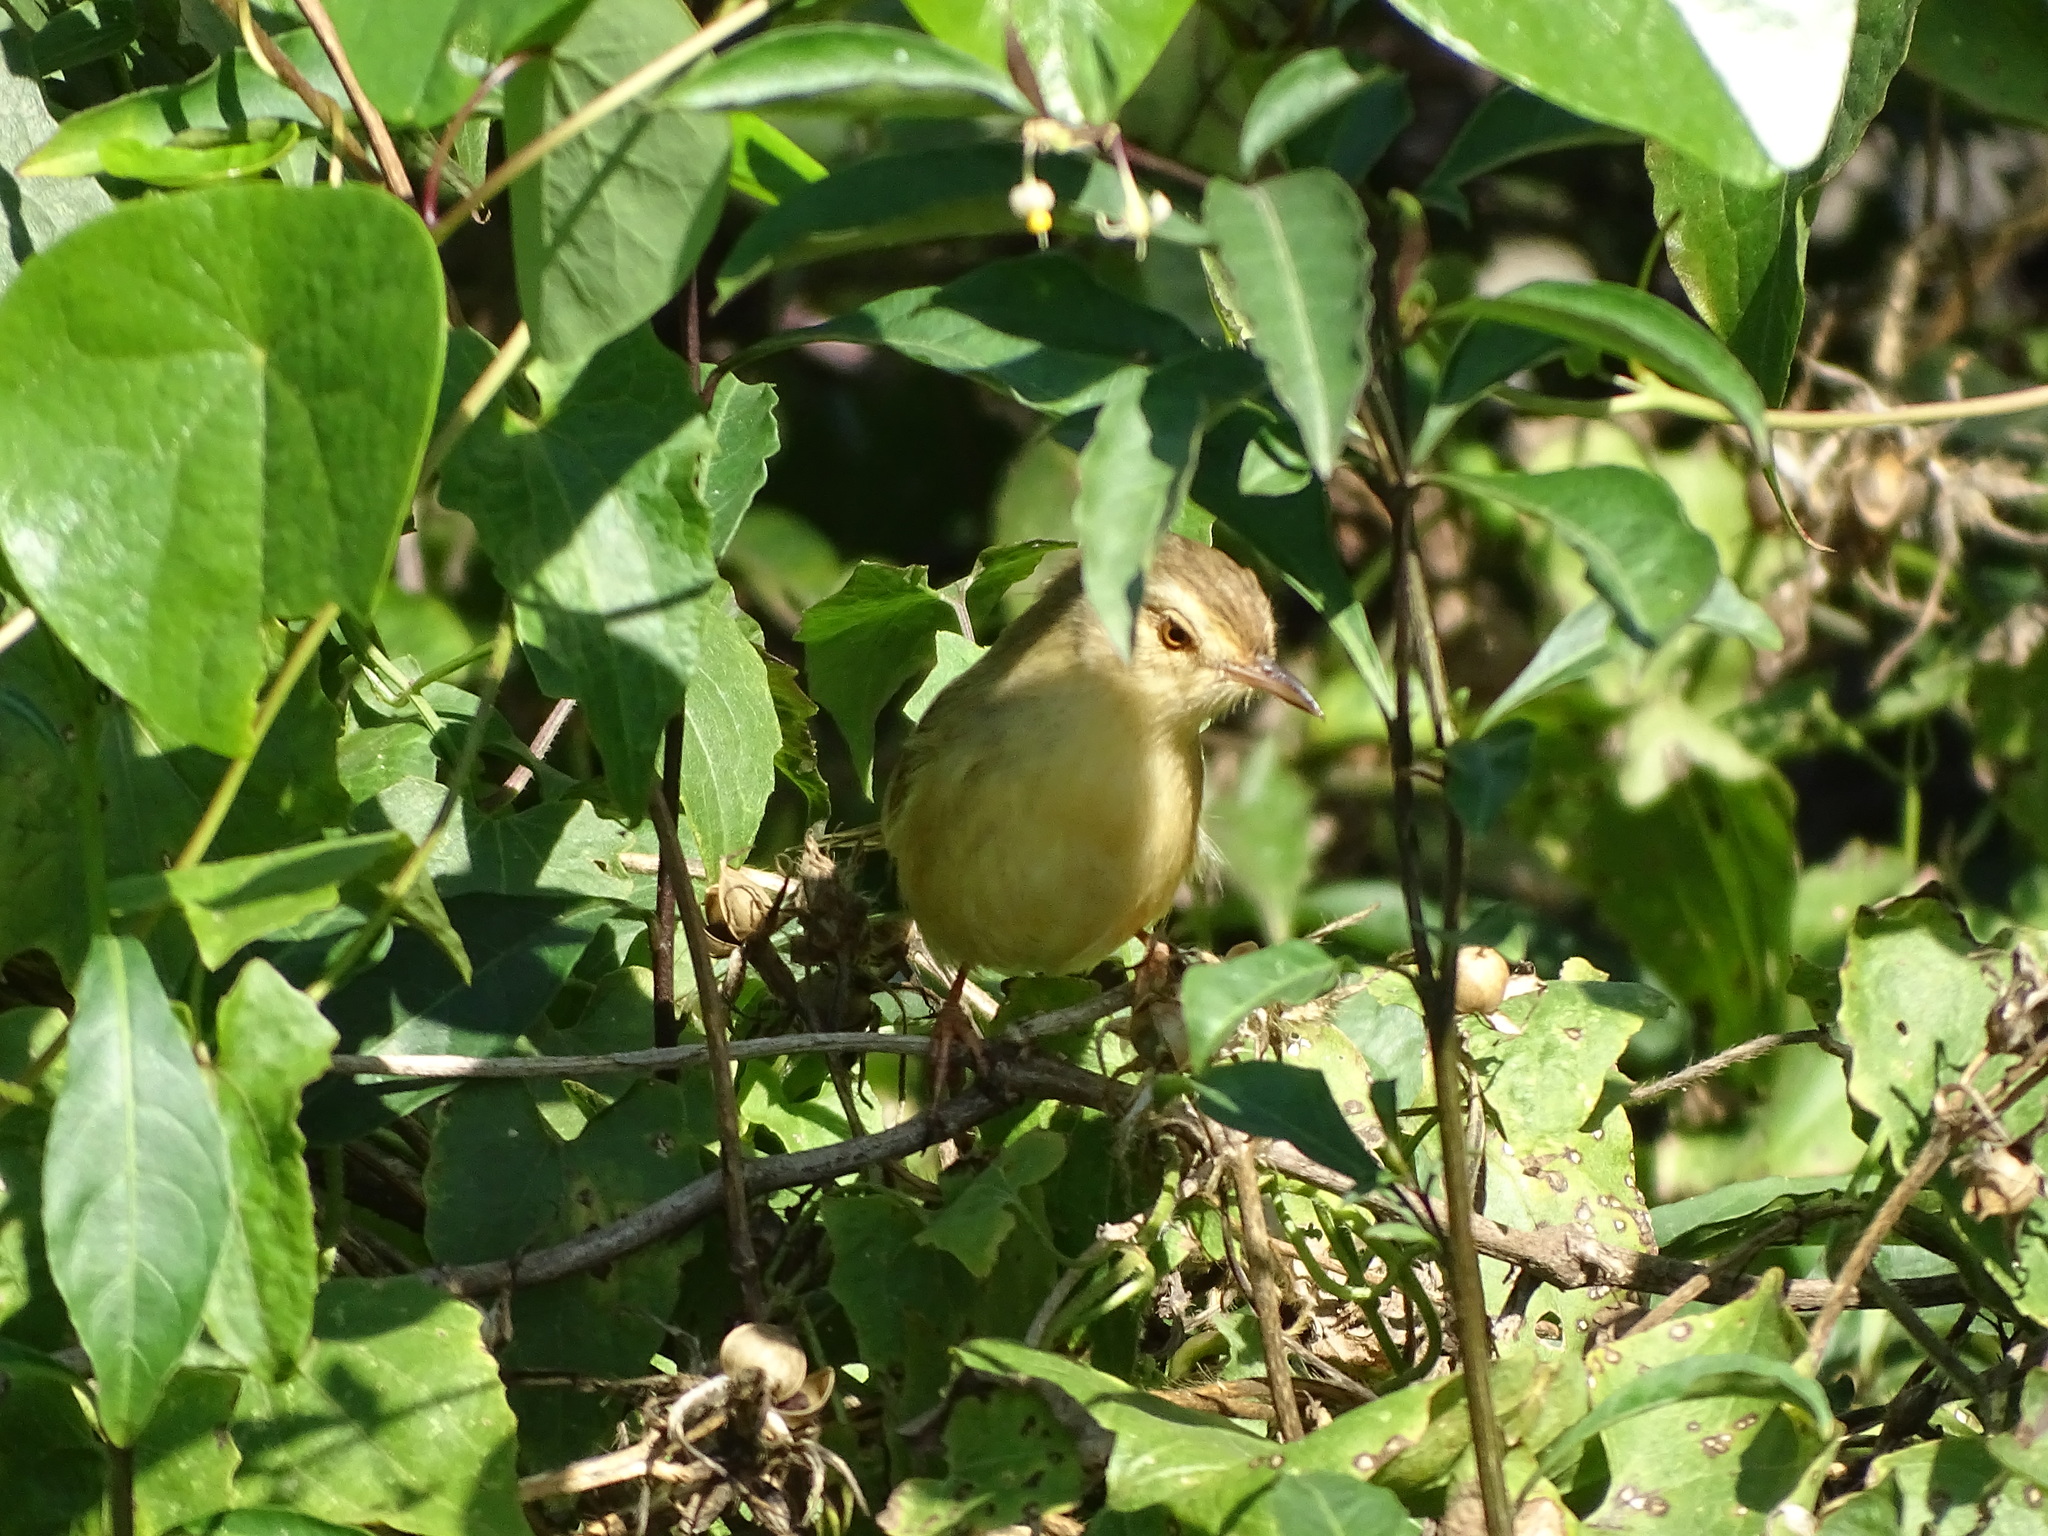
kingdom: Animalia
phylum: Chordata
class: Aves
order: Passeriformes
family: Cisticolidae
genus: Prinia
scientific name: Prinia inornata
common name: Plain prinia
